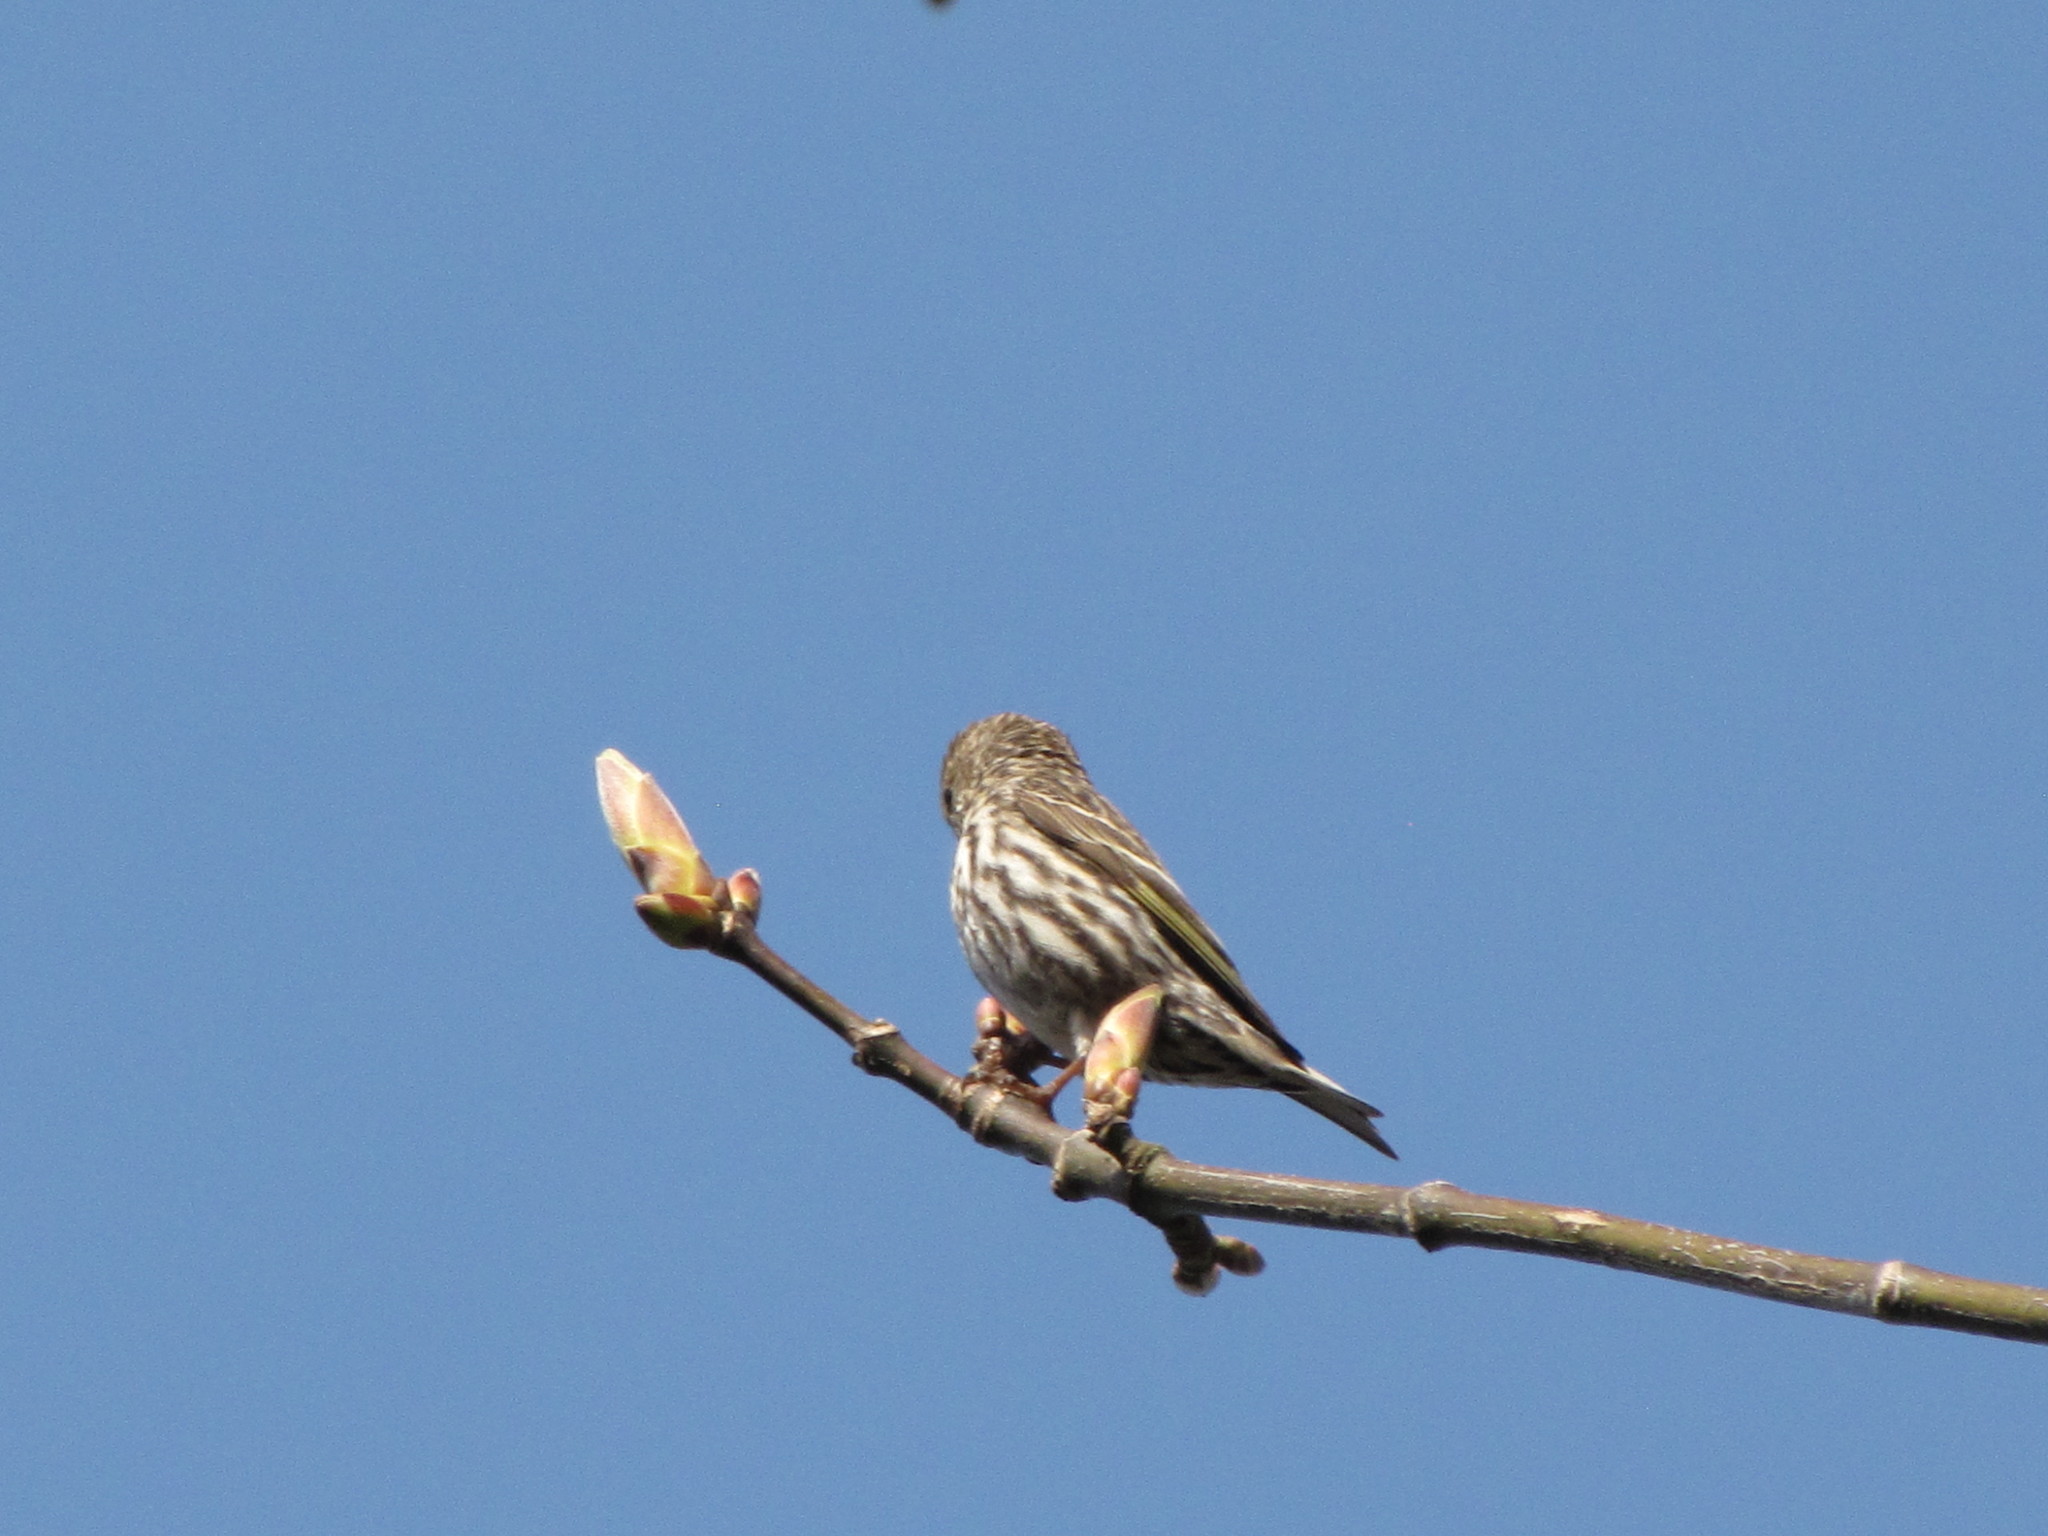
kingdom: Animalia
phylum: Chordata
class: Aves
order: Passeriformes
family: Fringillidae
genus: Spinus
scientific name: Spinus pinus
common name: Pine siskin
